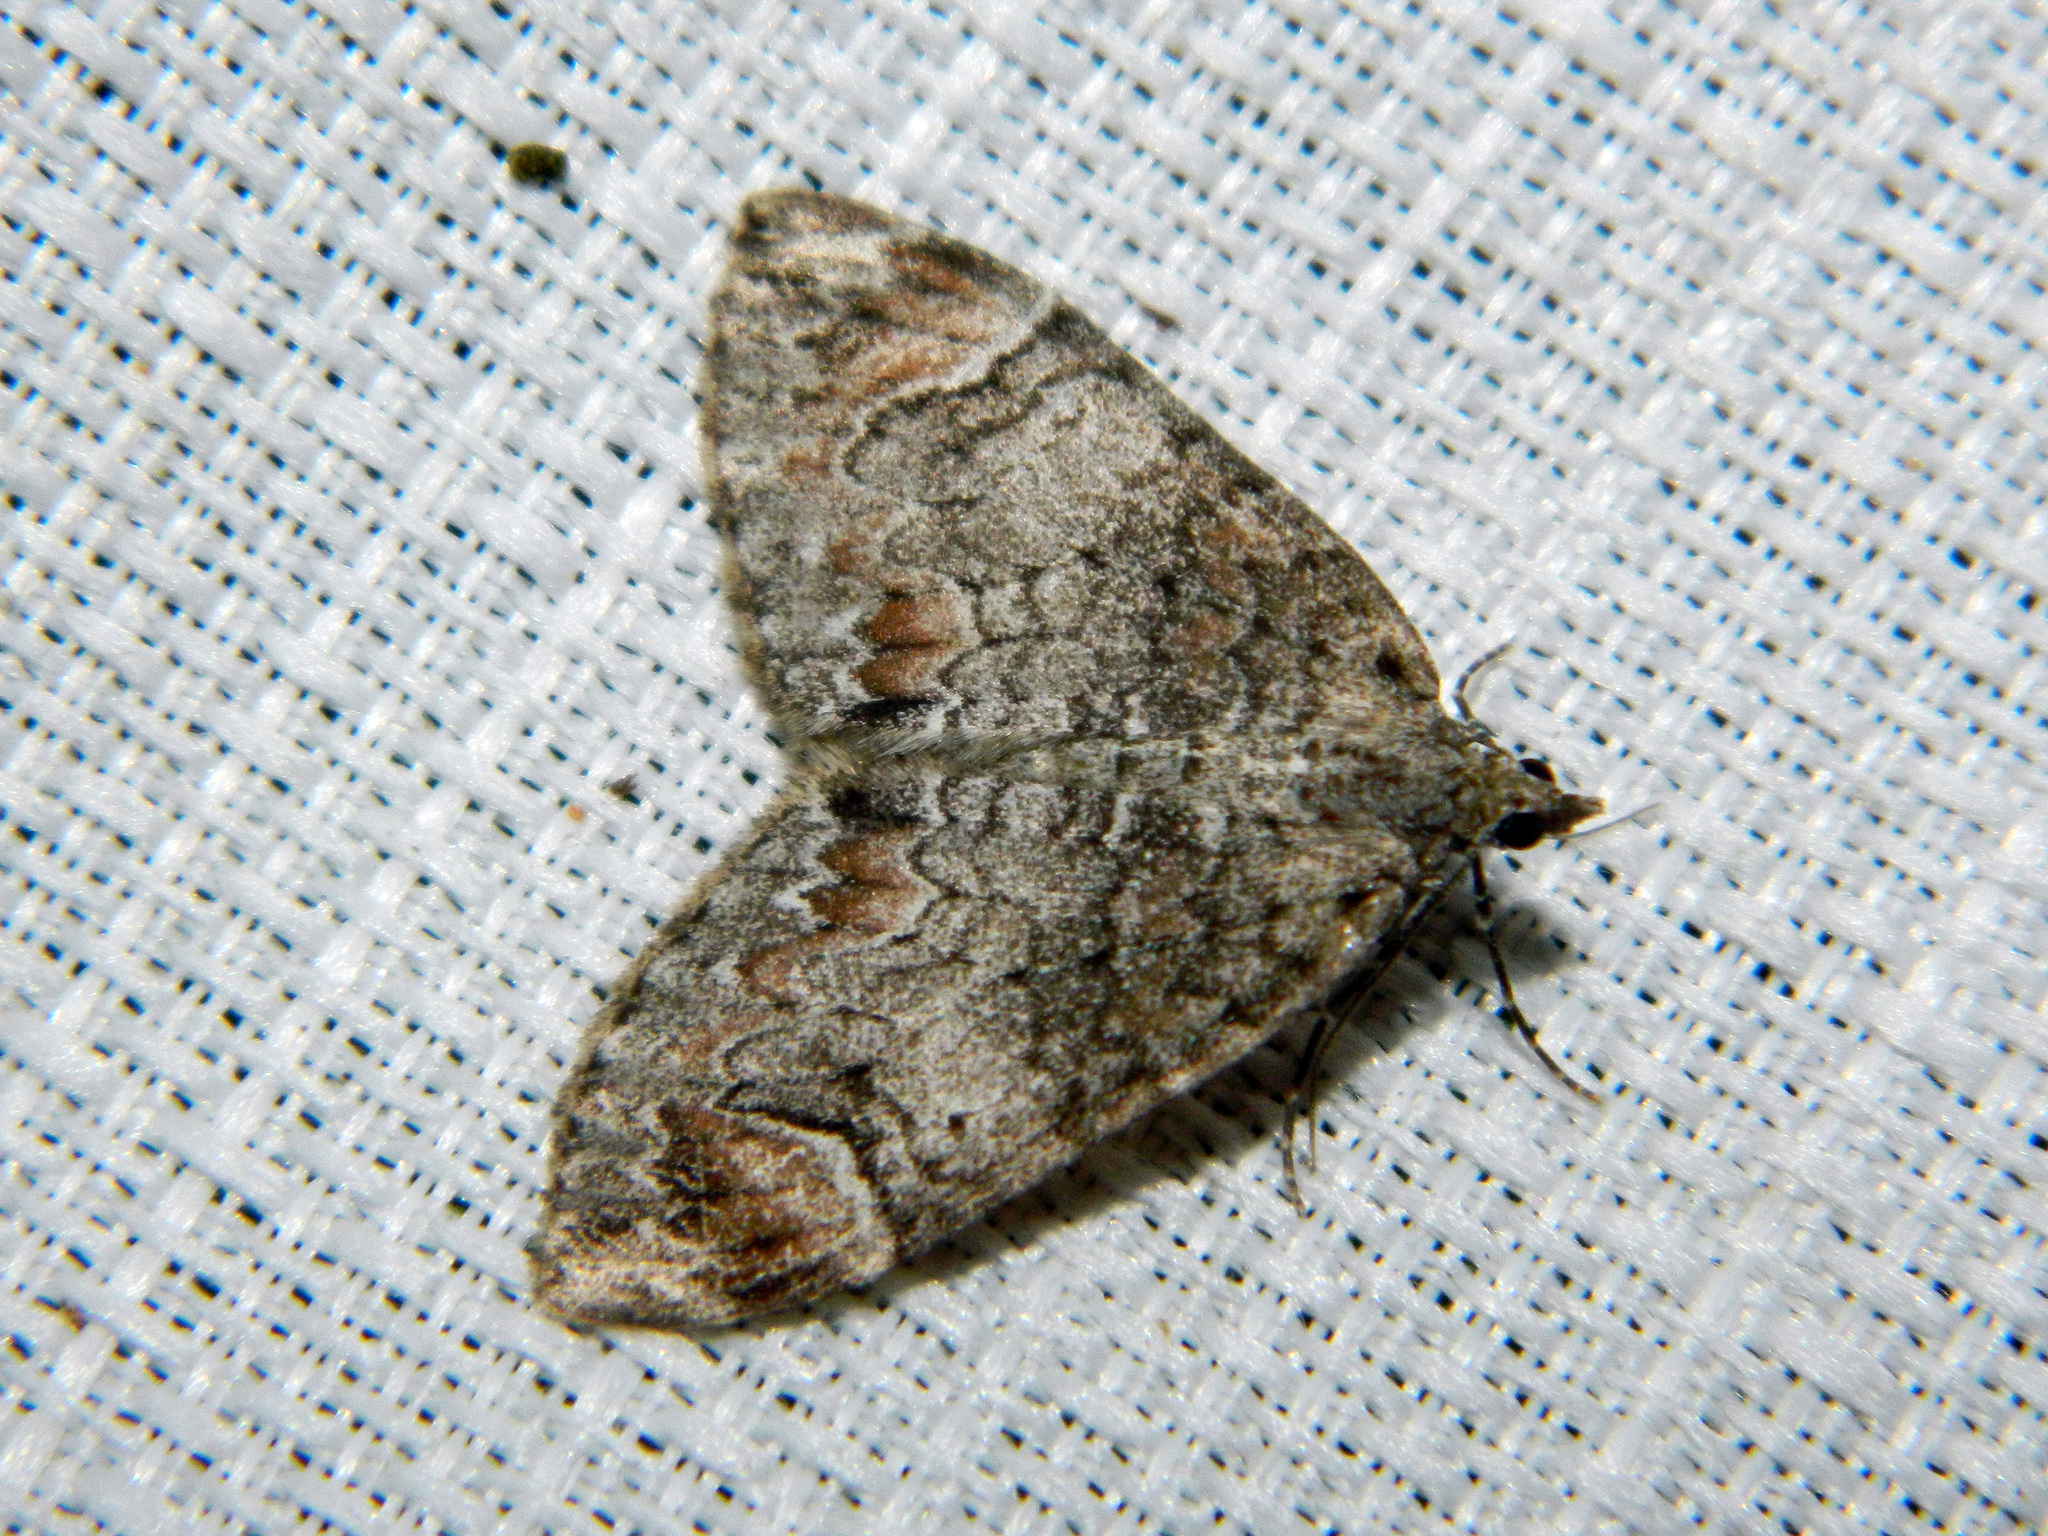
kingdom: Animalia
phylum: Arthropoda
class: Insecta
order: Lepidoptera
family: Geometridae
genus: Dysstroma
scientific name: Dysstroma citrata
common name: Dark marbled carpet
